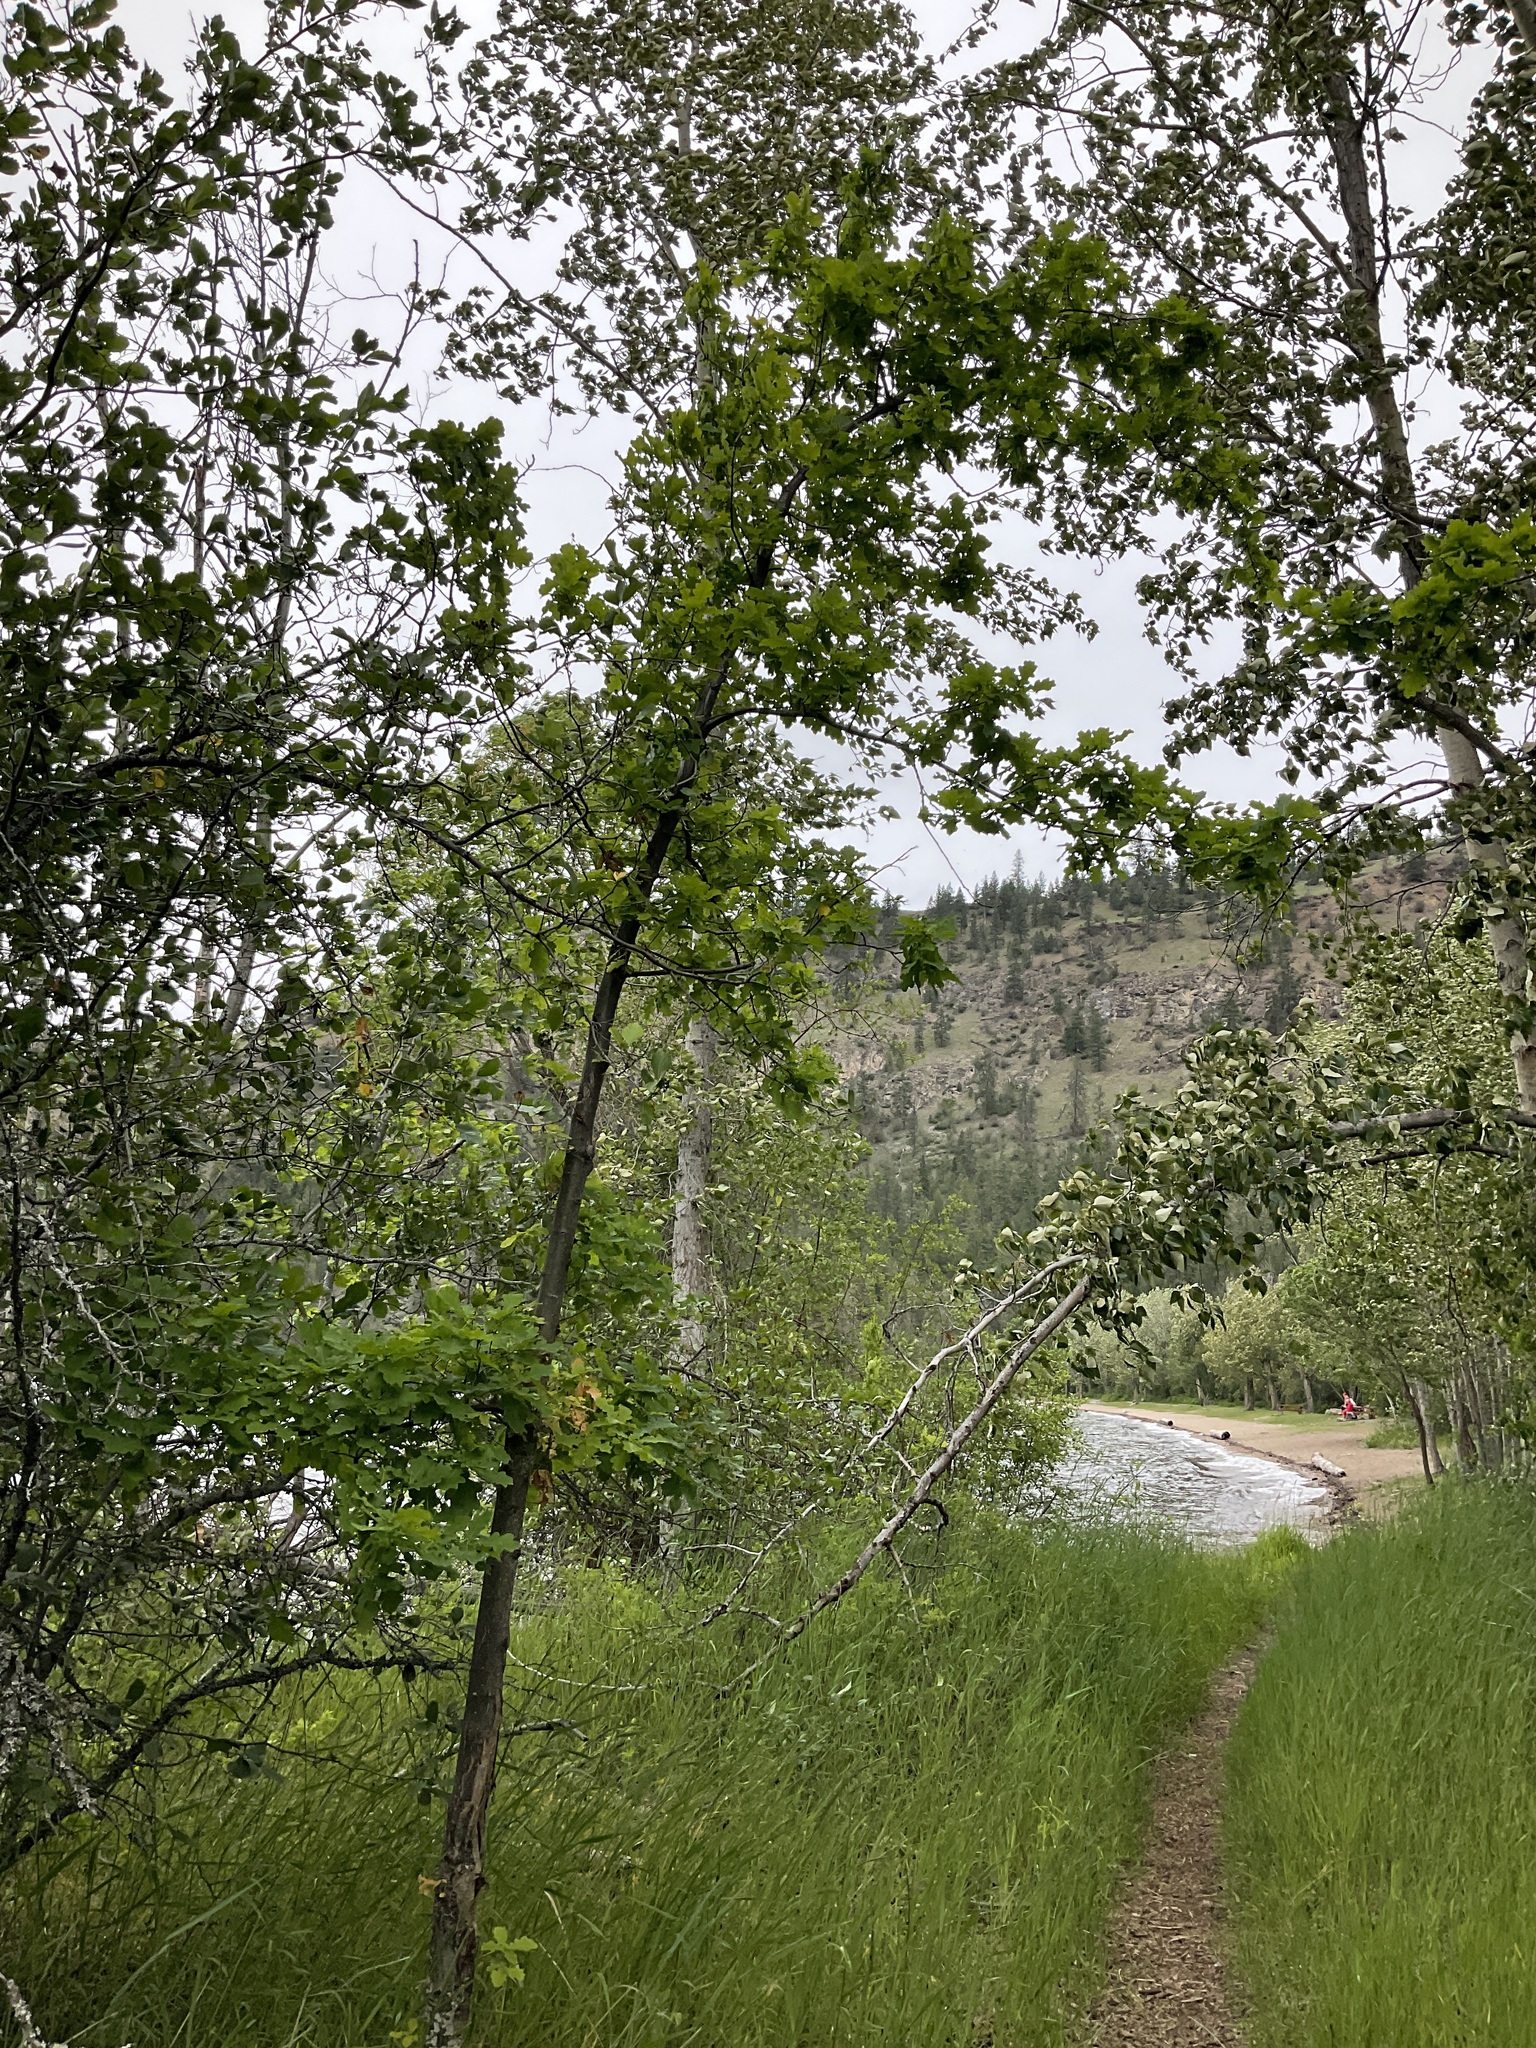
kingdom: Plantae
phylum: Tracheophyta
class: Magnoliopsida
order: Fagales
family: Fagaceae
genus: Quercus
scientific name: Quercus robur
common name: Pedunculate oak
